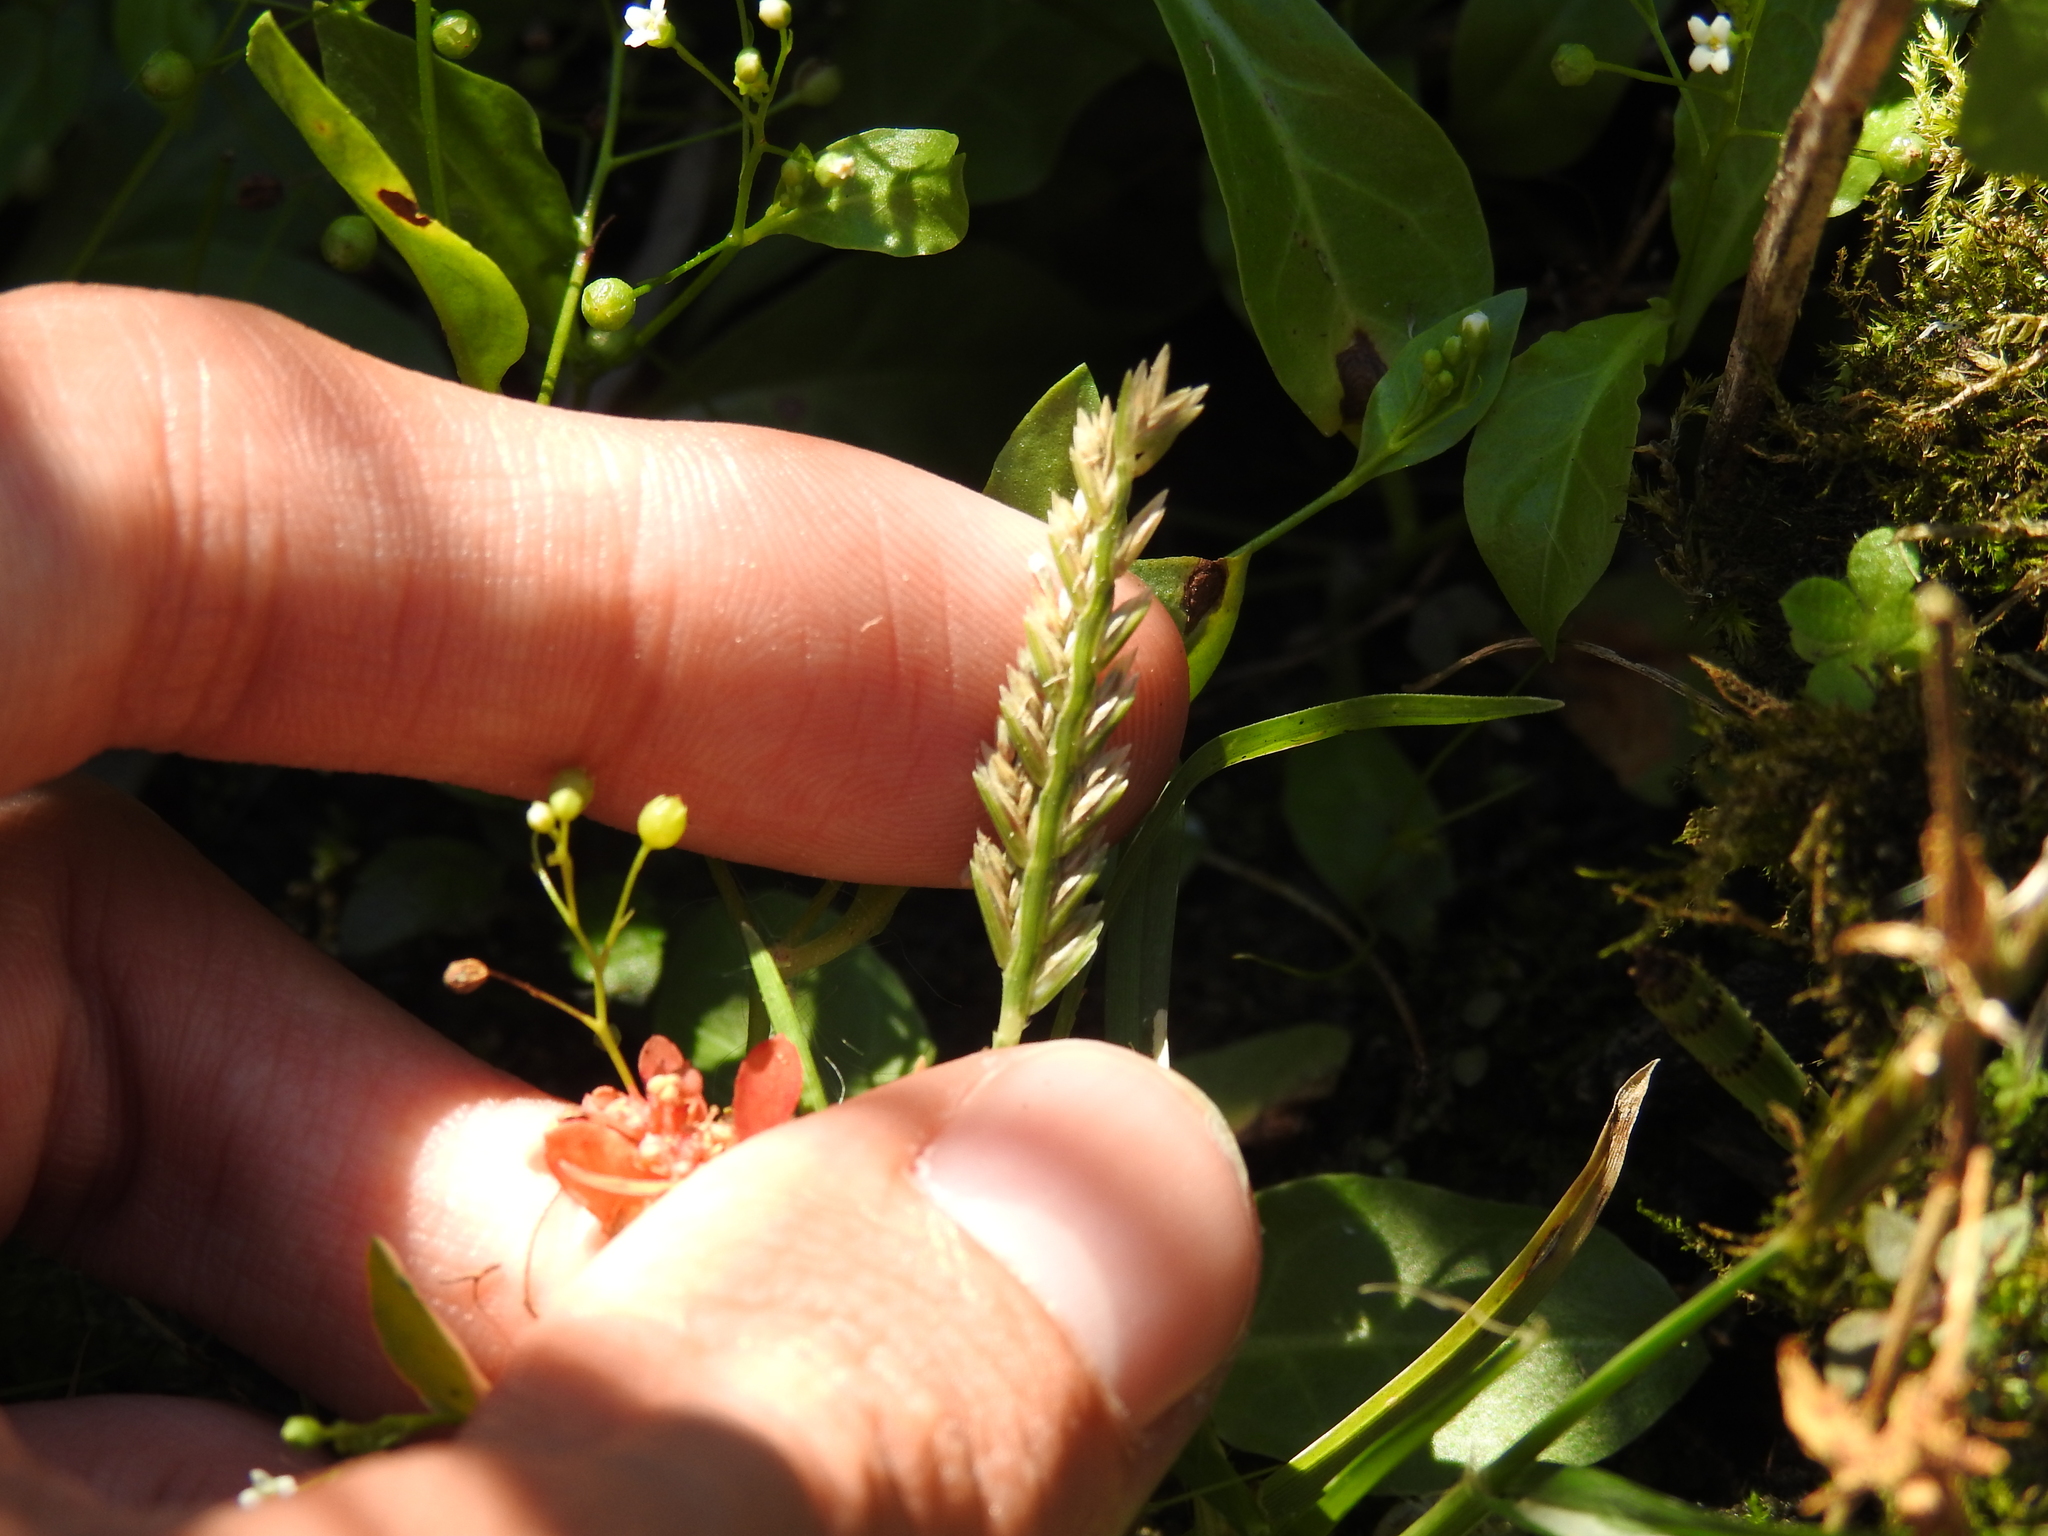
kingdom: Plantae
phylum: Tracheophyta
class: Liliopsida
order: Poales
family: Poaceae
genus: Eleusine
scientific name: Eleusine indica
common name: Yard-grass
